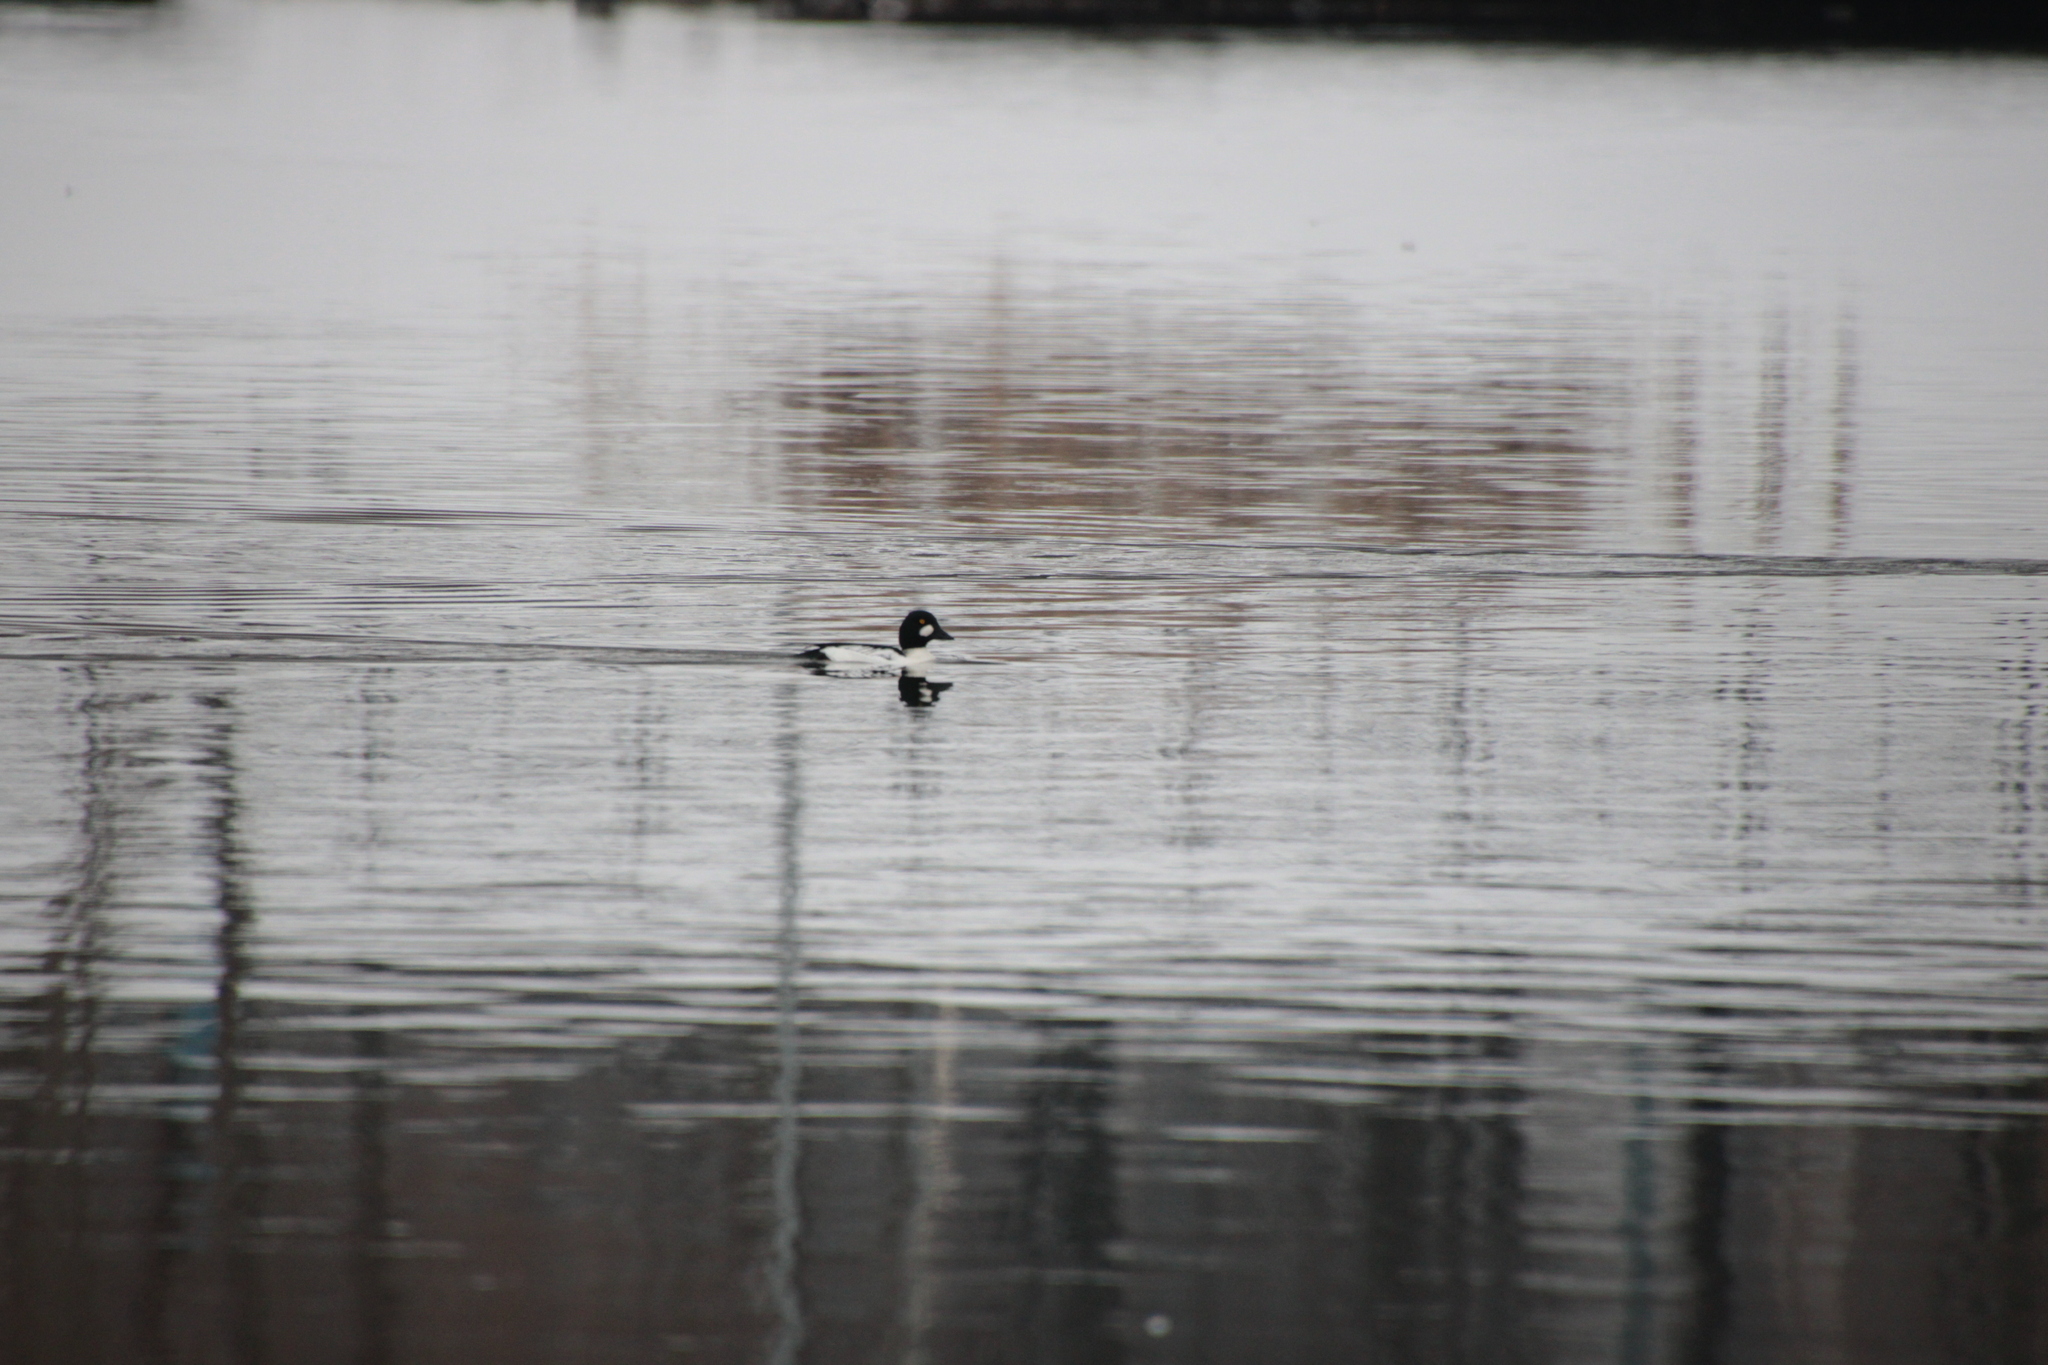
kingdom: Animalia
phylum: Chordata
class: Aves
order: Anseriformes
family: Anatidae
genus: Bucephala
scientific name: Bucephala clangula
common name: Common goldeneye
